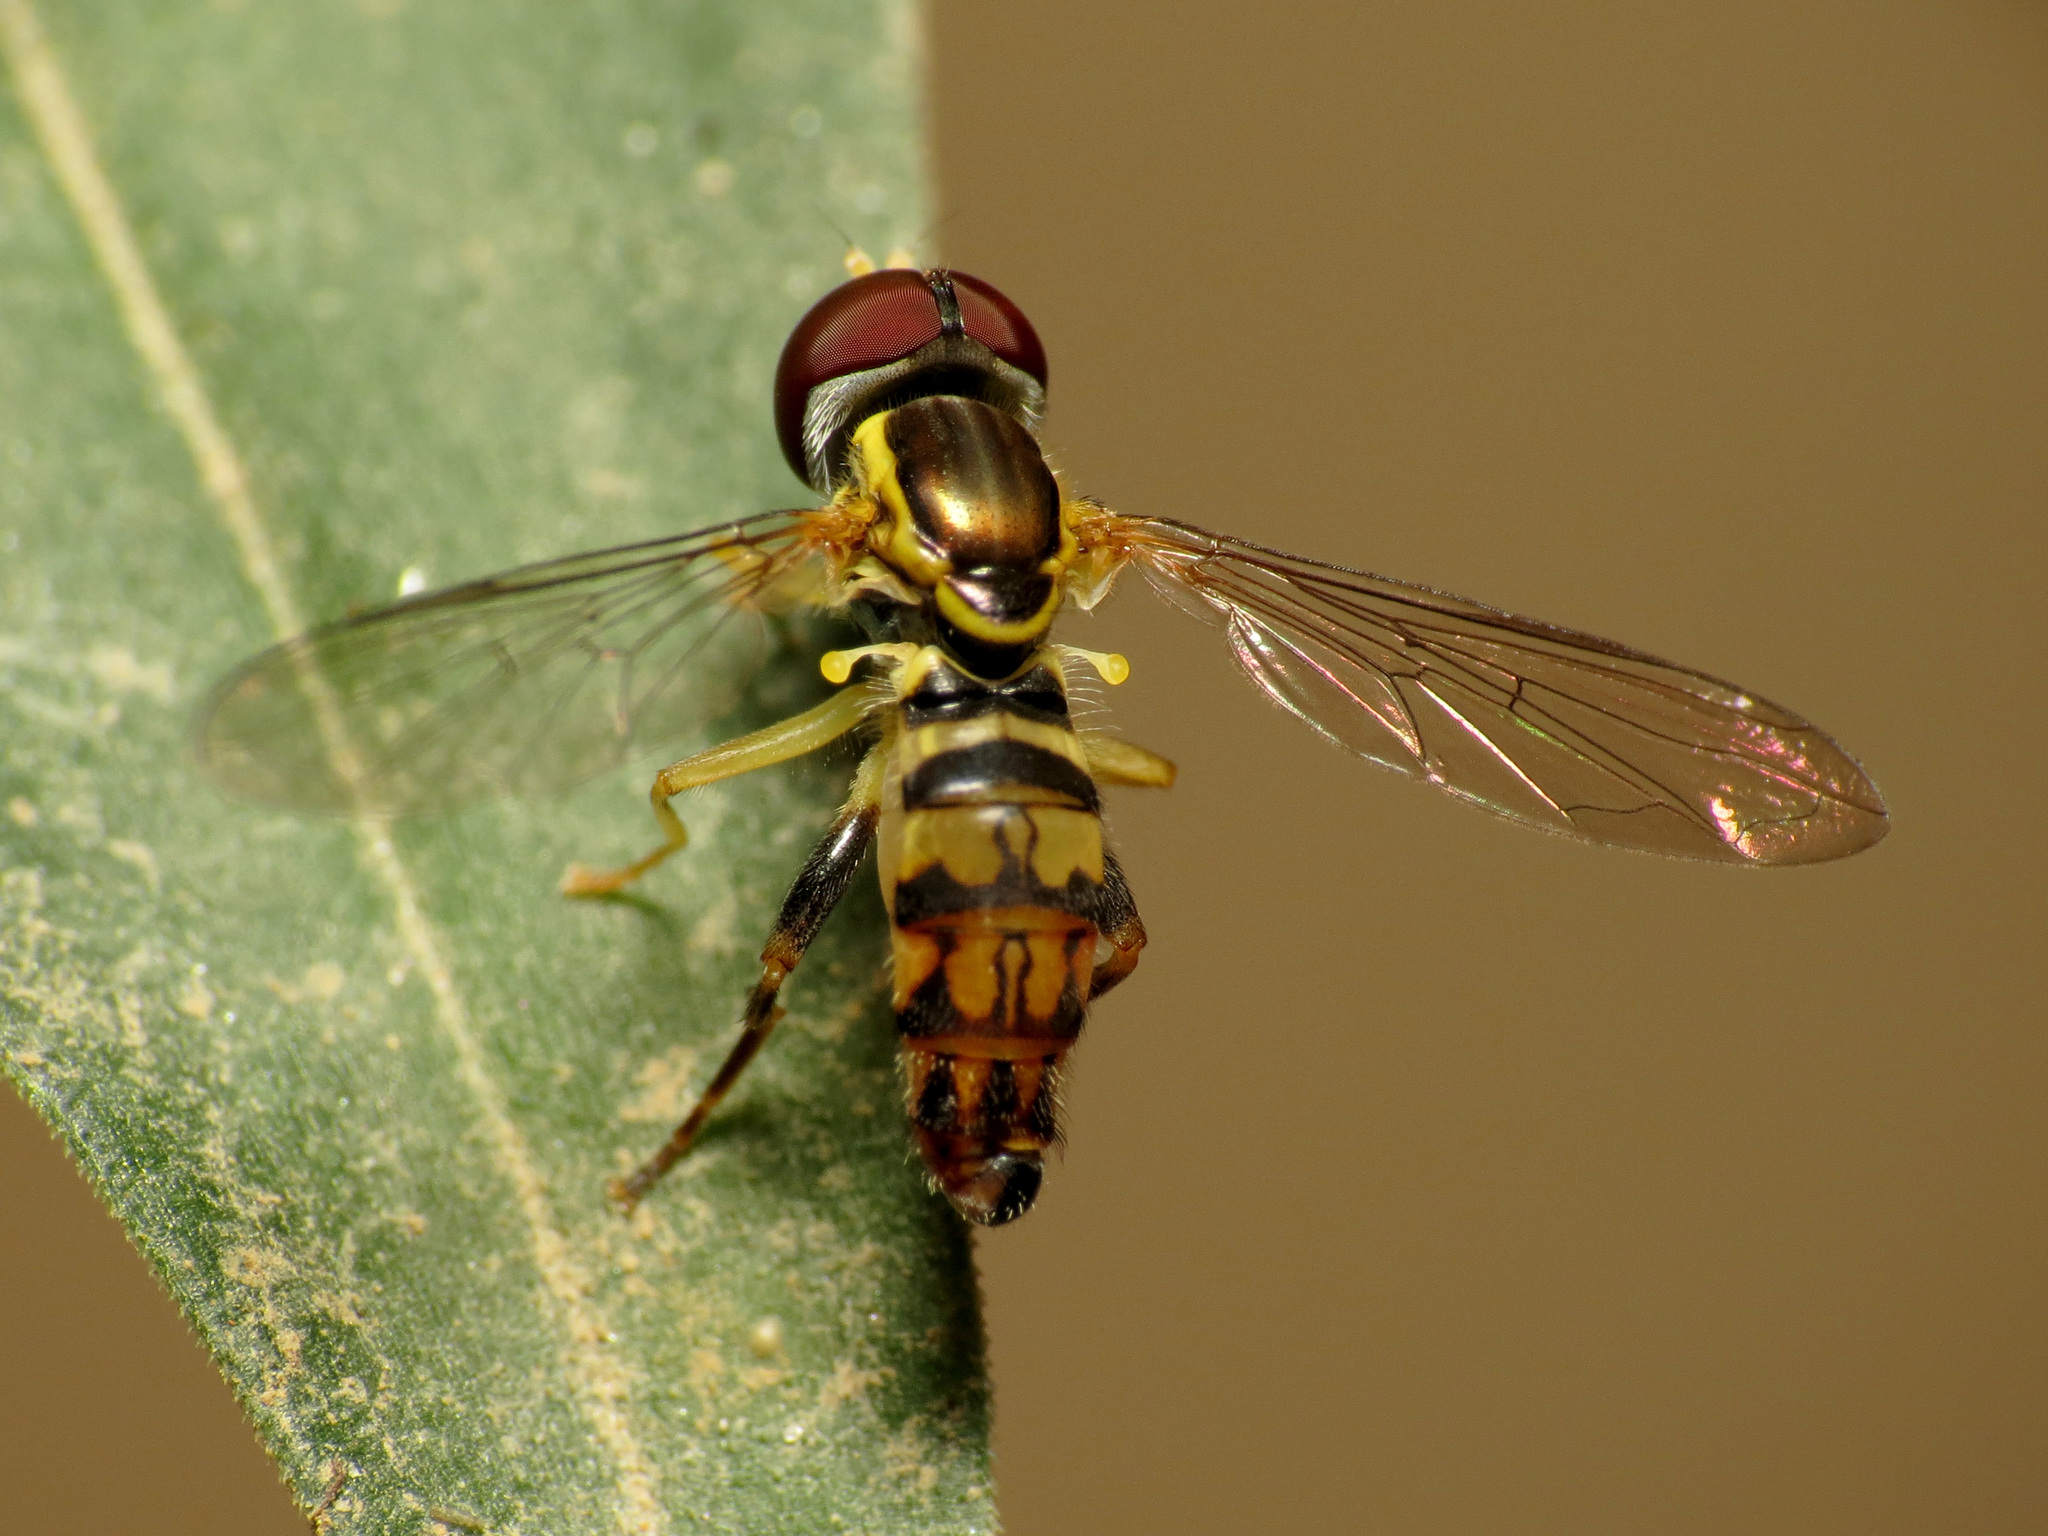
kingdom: Animalia
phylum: Arthropoda
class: Insecta
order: Diptera
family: Syrphidae
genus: Toxomerus
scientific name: Toxomerus geminatus
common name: Eastern calligrapher
